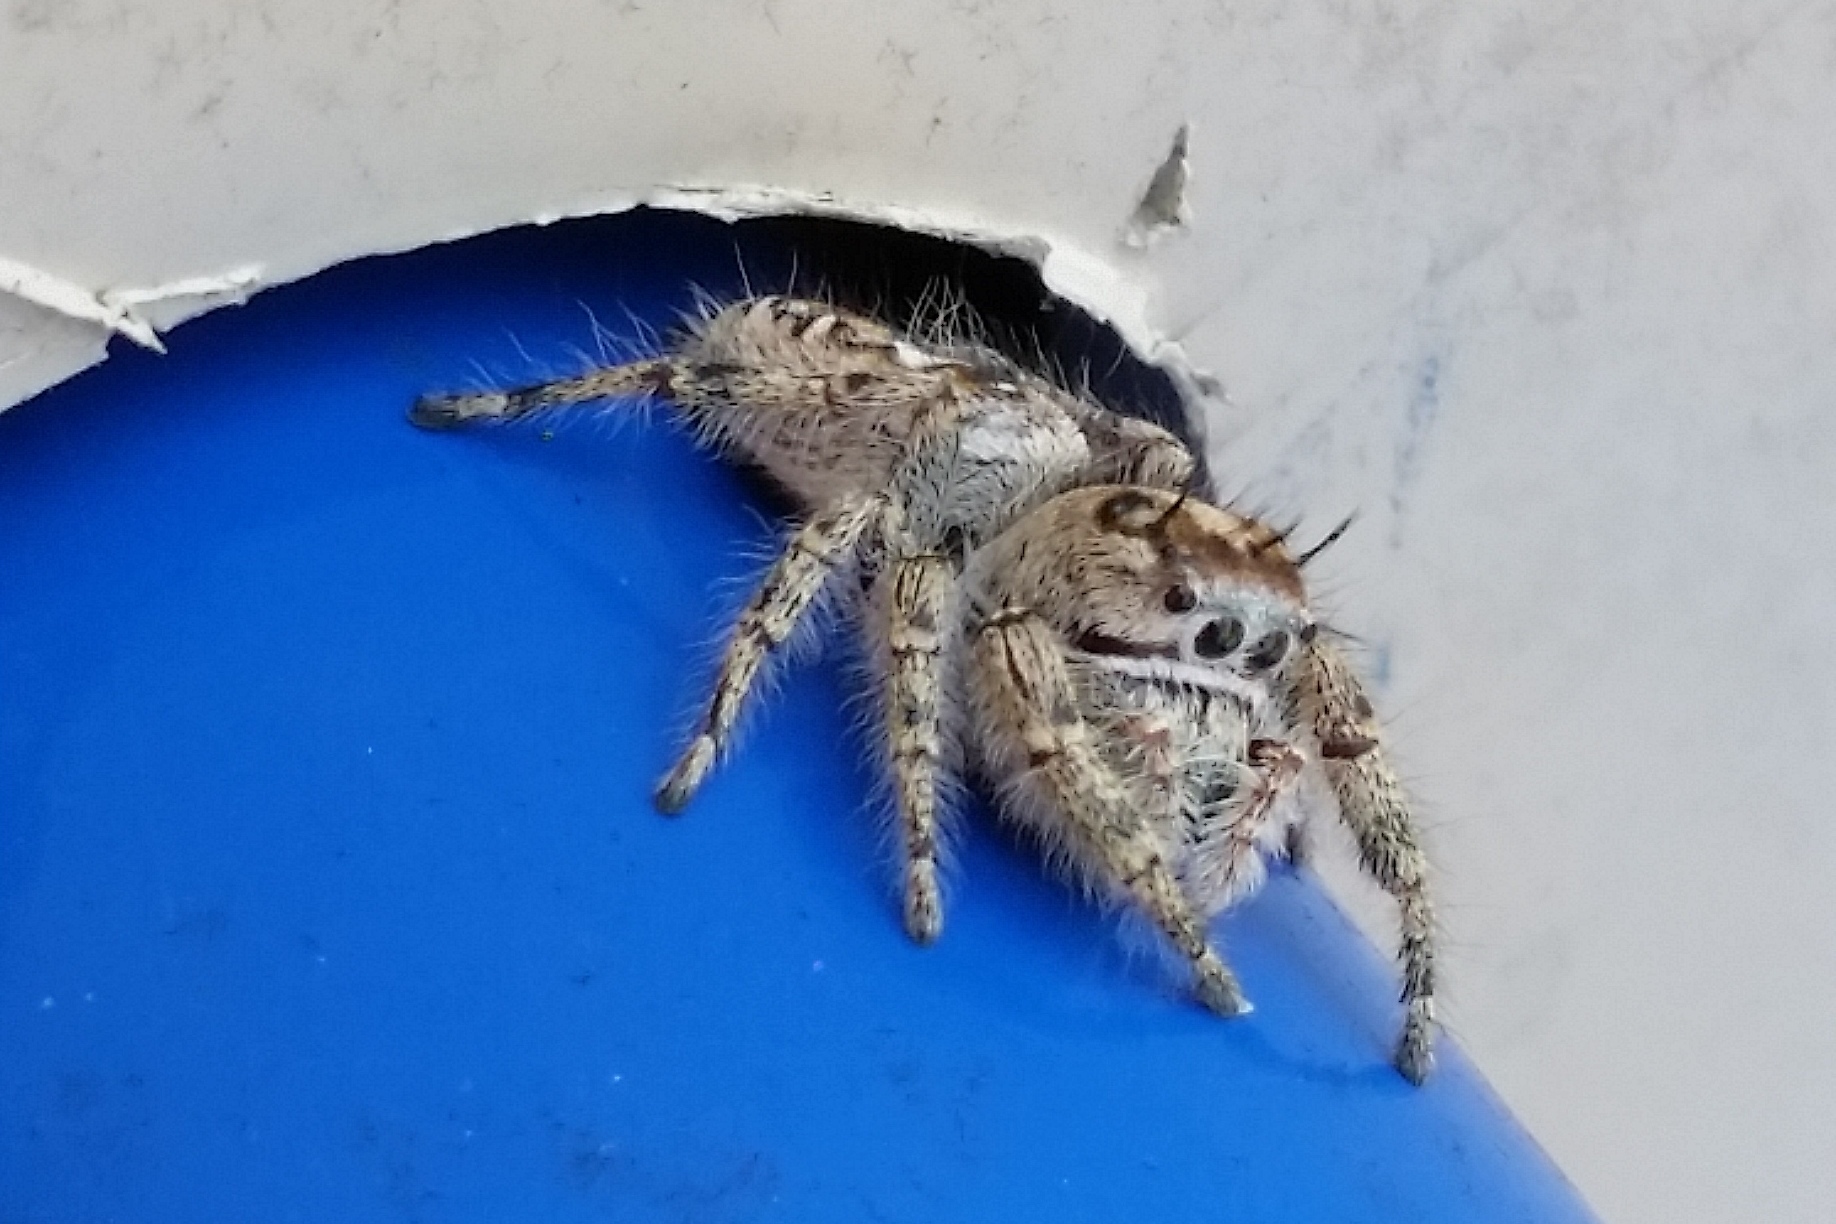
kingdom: Animalia
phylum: Arthropoda
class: Arachnida
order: Araneae
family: Salticidae
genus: Phidippus
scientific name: Phidippus putnami
